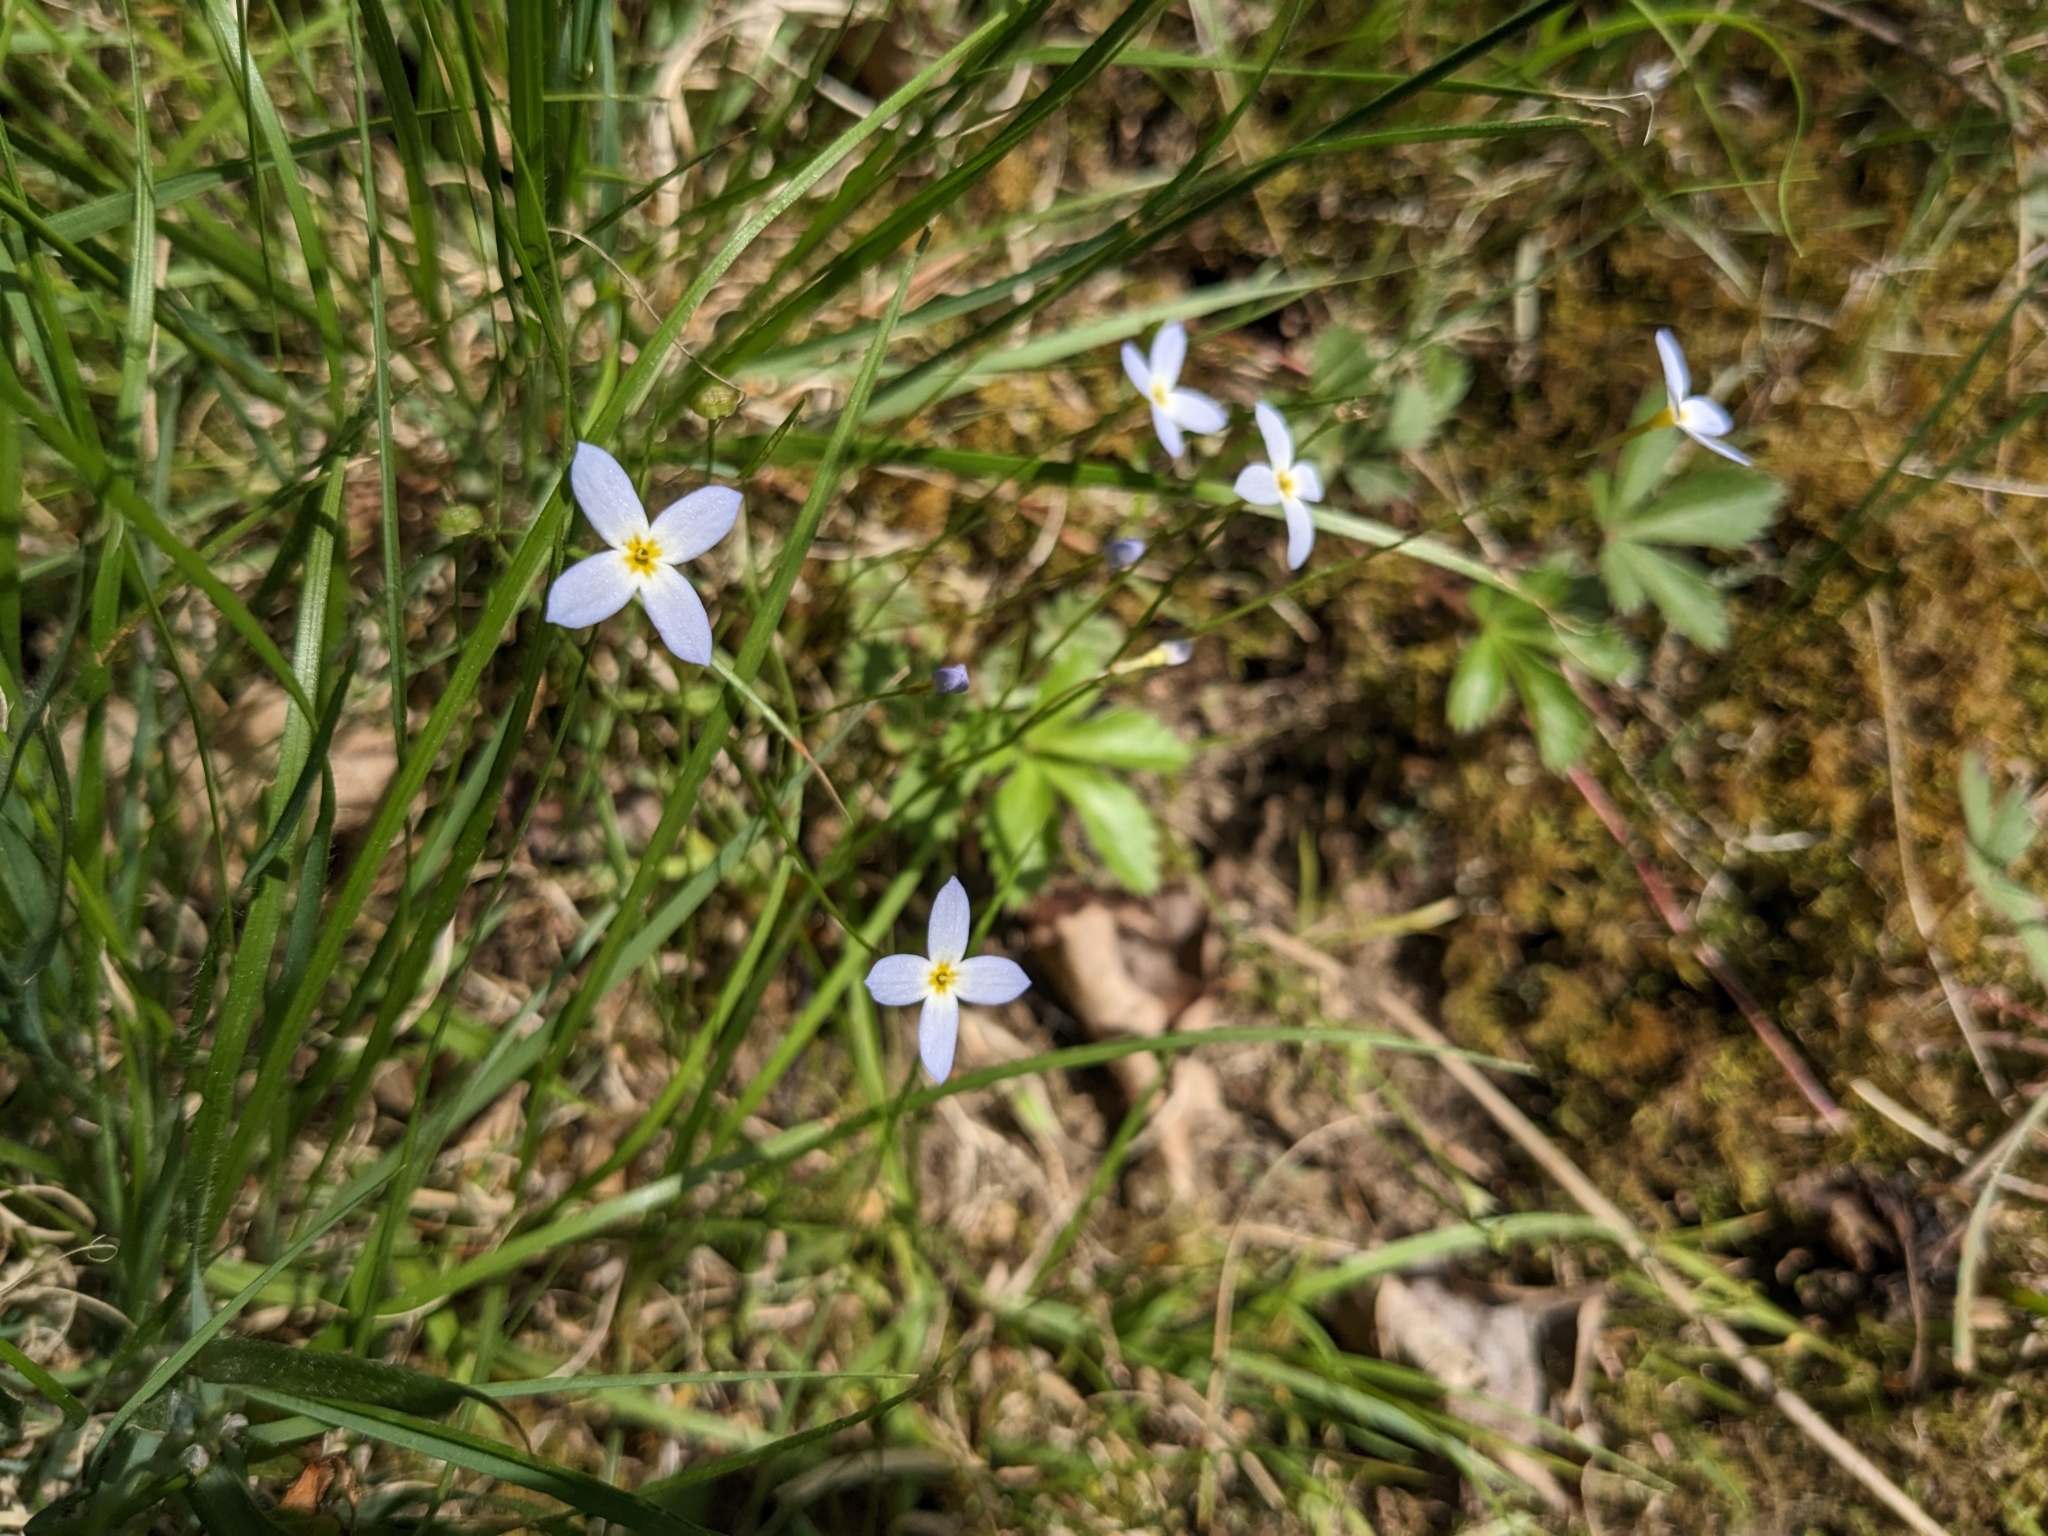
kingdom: Plantae
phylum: Tracheophyta
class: Magnoliopsida
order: Gentianales
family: Rubiaceae
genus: Houstonia
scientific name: Houstonia caerulea
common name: Bluets
